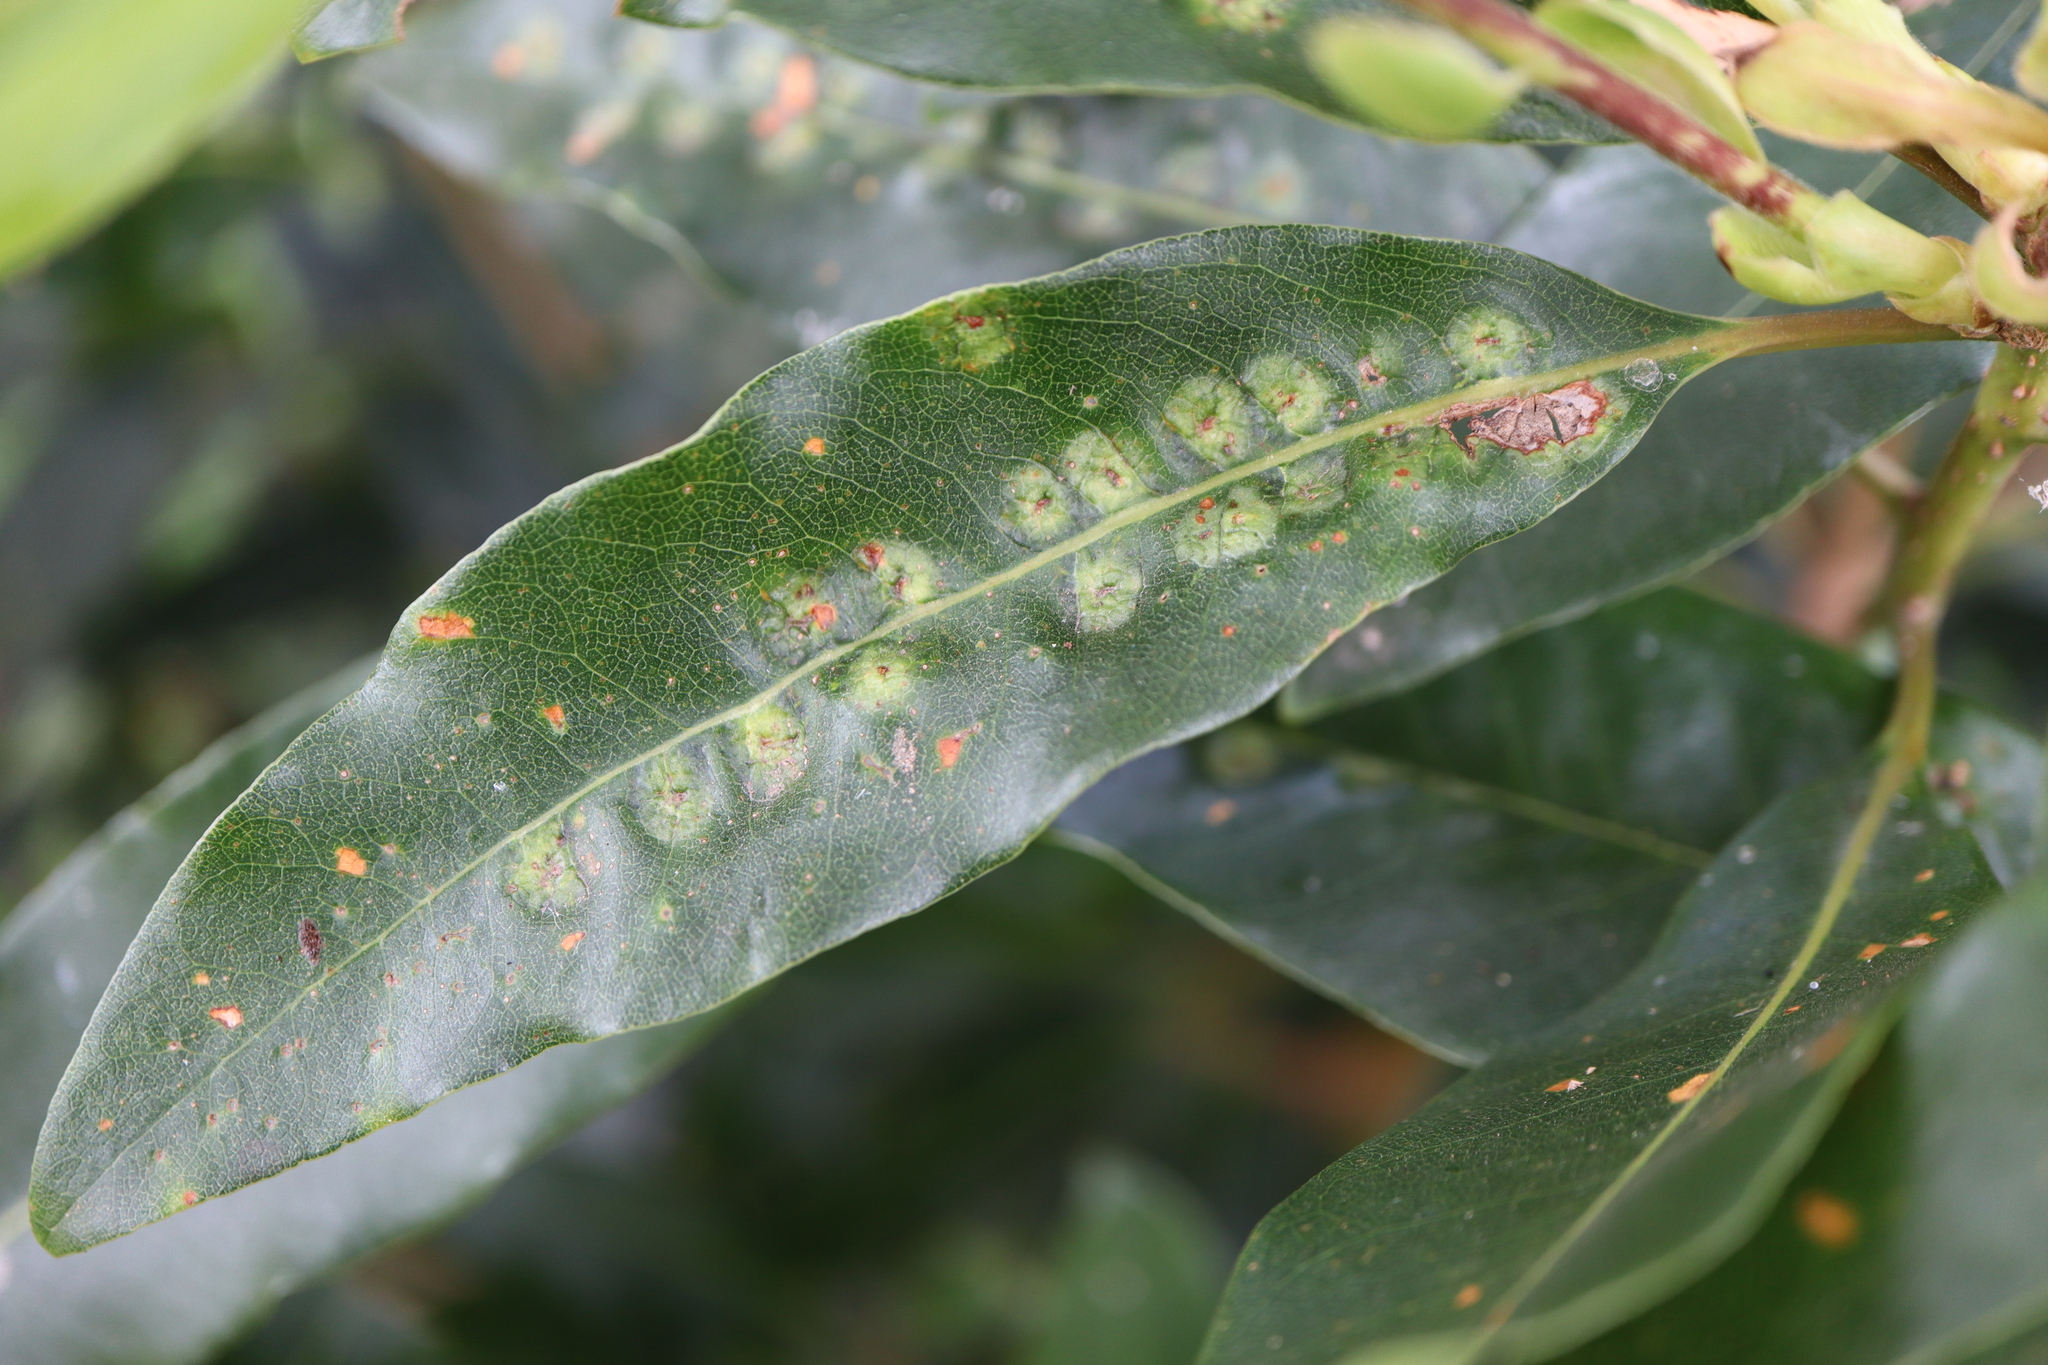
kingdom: Animalia
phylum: Arthropoda
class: Insecta
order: Diptera
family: Agromyzidae
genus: Phytoliriomyza
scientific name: Phytoliriomyza pittosporophylli
